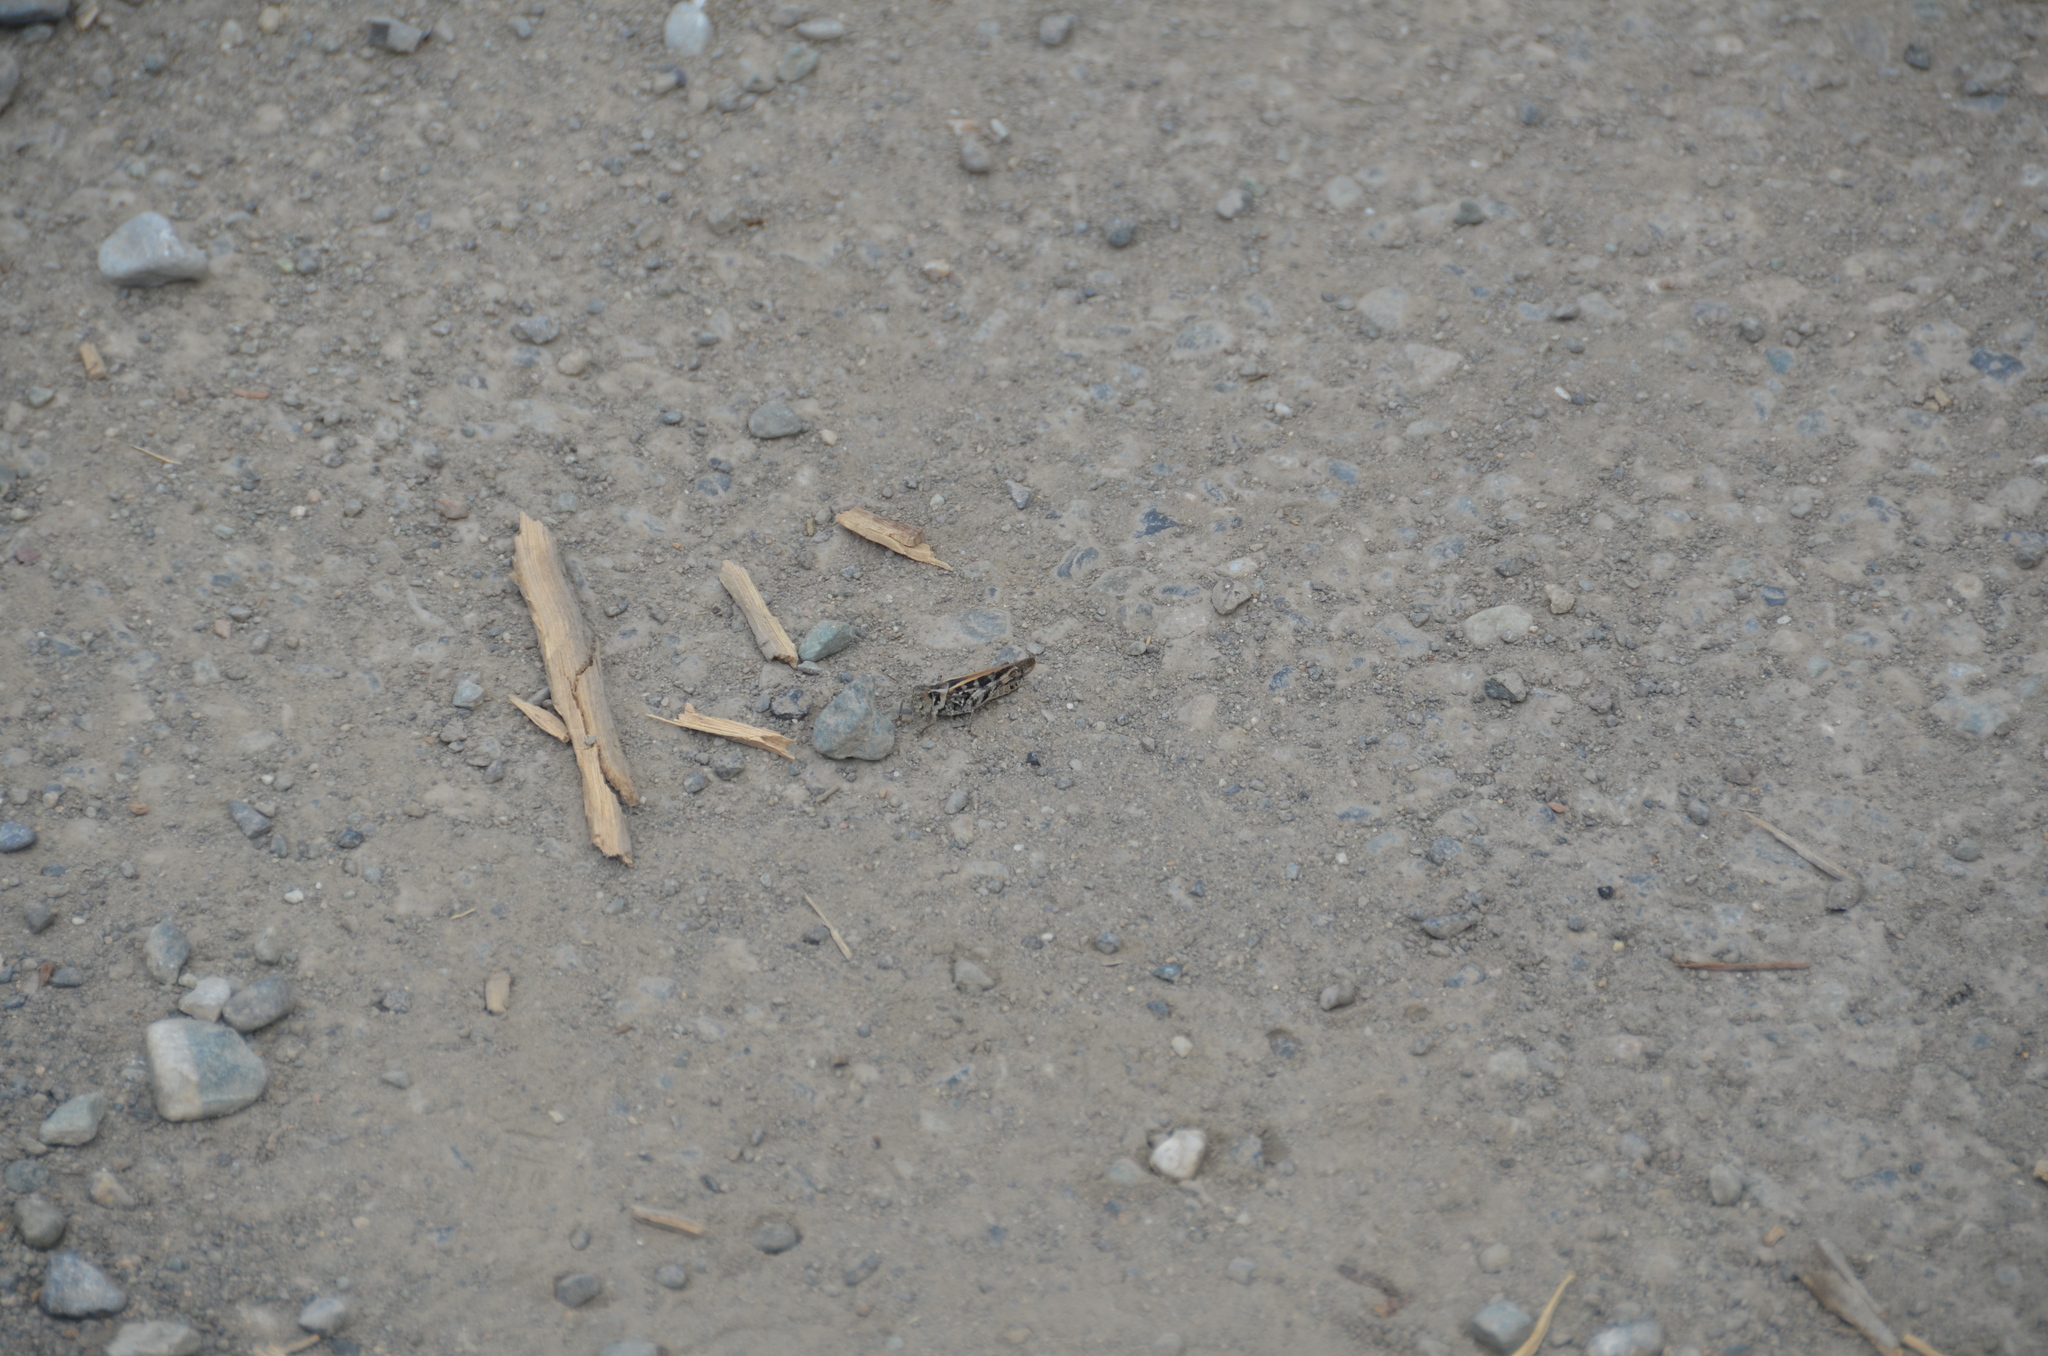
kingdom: Animalia
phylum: Arthropoda
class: Insecta
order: Orthoptera
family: Acrididae
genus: Camnula
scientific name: Camnula pellucida
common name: Clear-winged grasshopper
